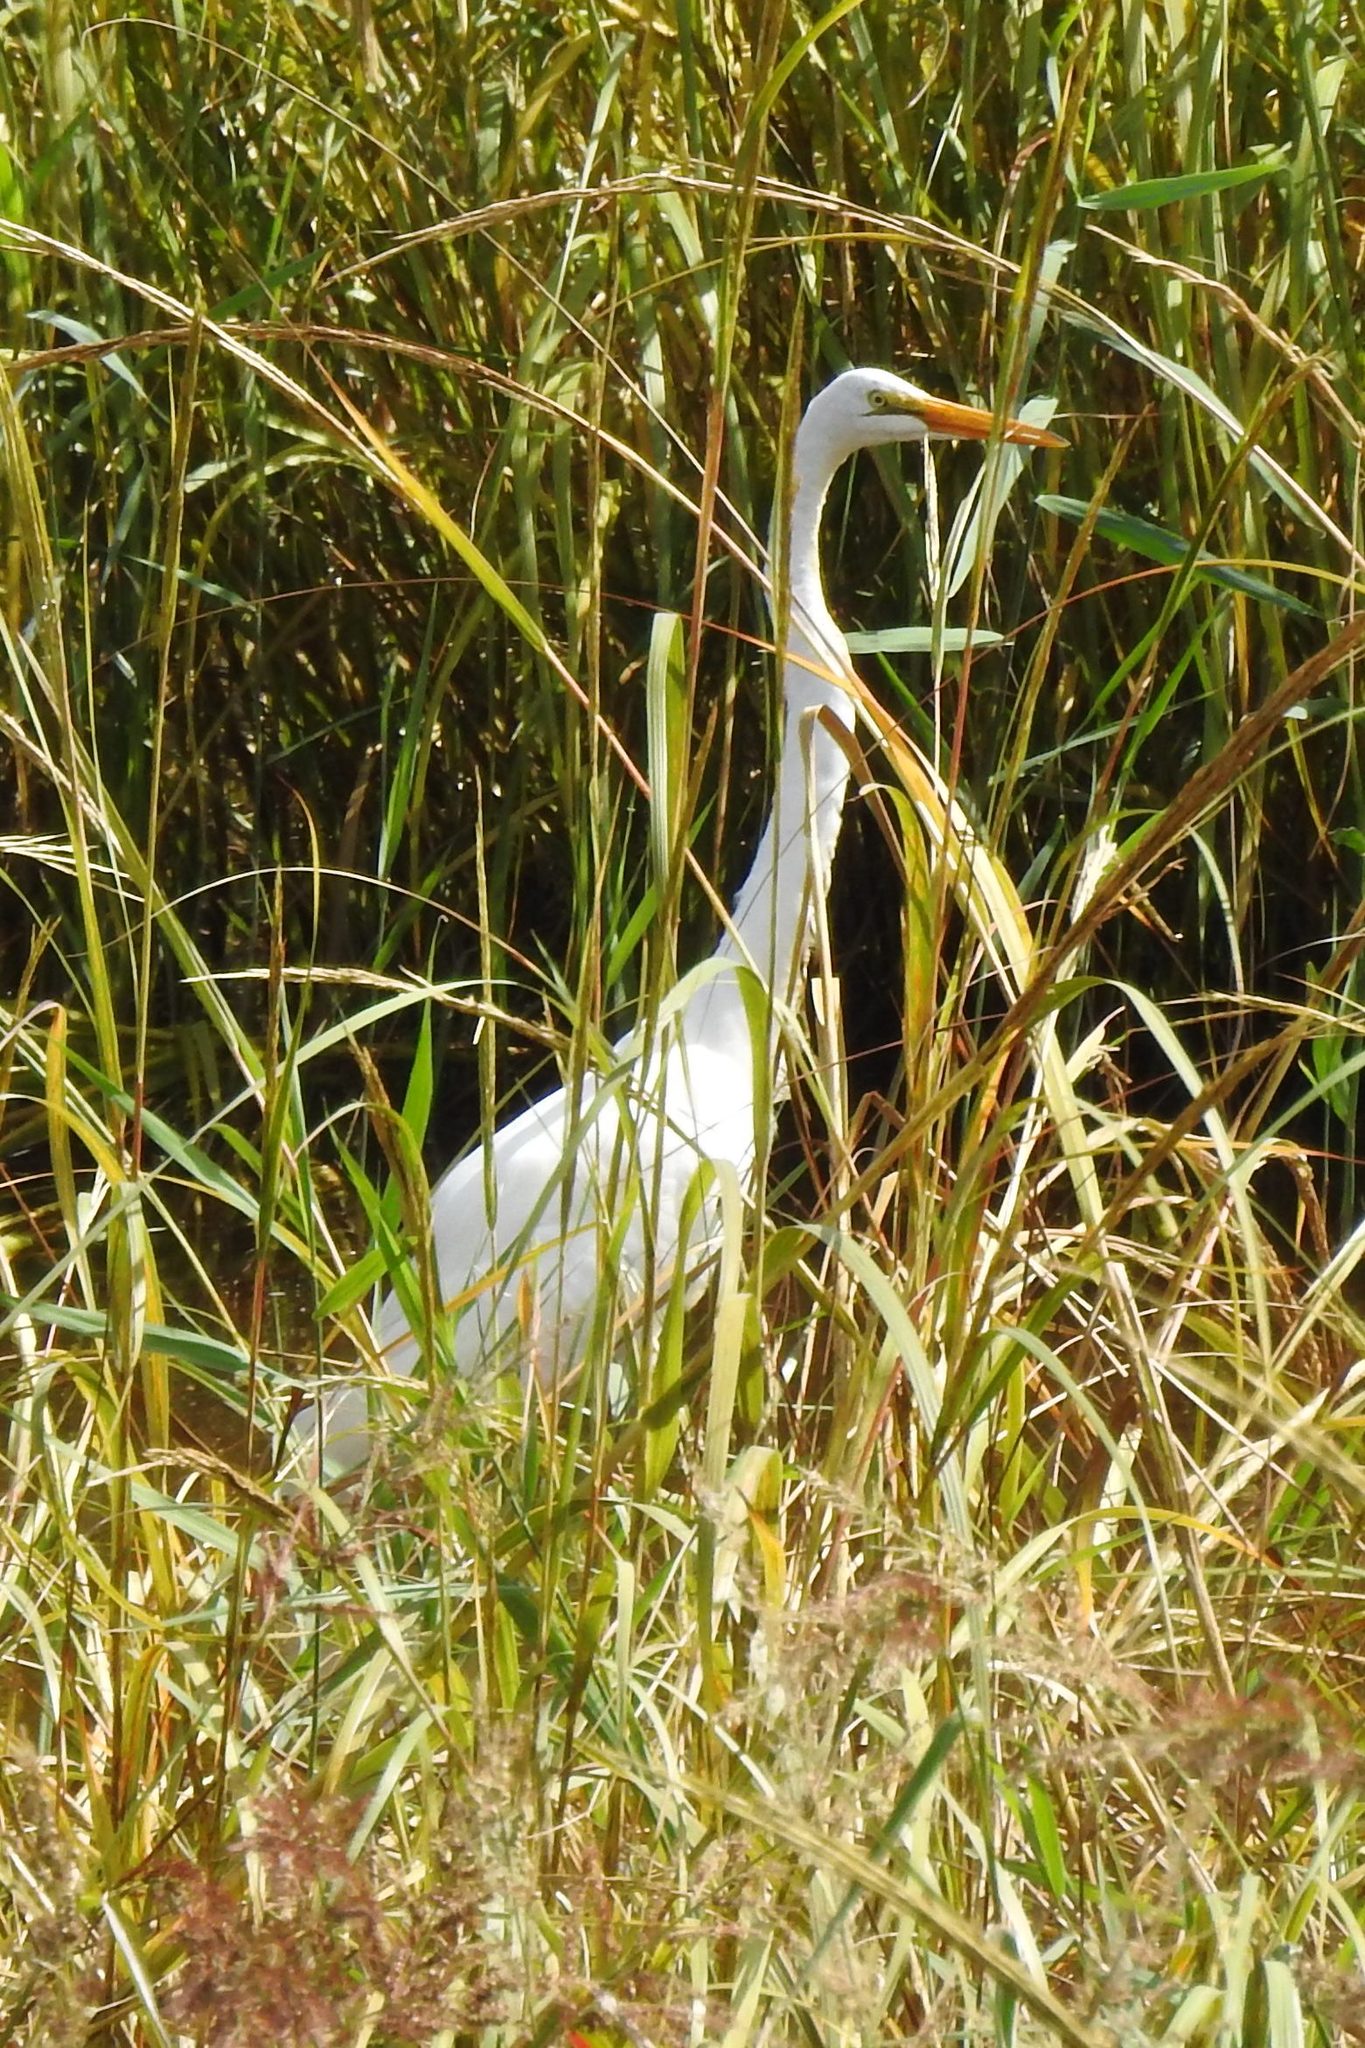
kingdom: Animalia
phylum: Chordata
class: Aves
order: Pelecaniformes
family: Ardeidae
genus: Ardea
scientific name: Ardea alba
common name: Great egret
